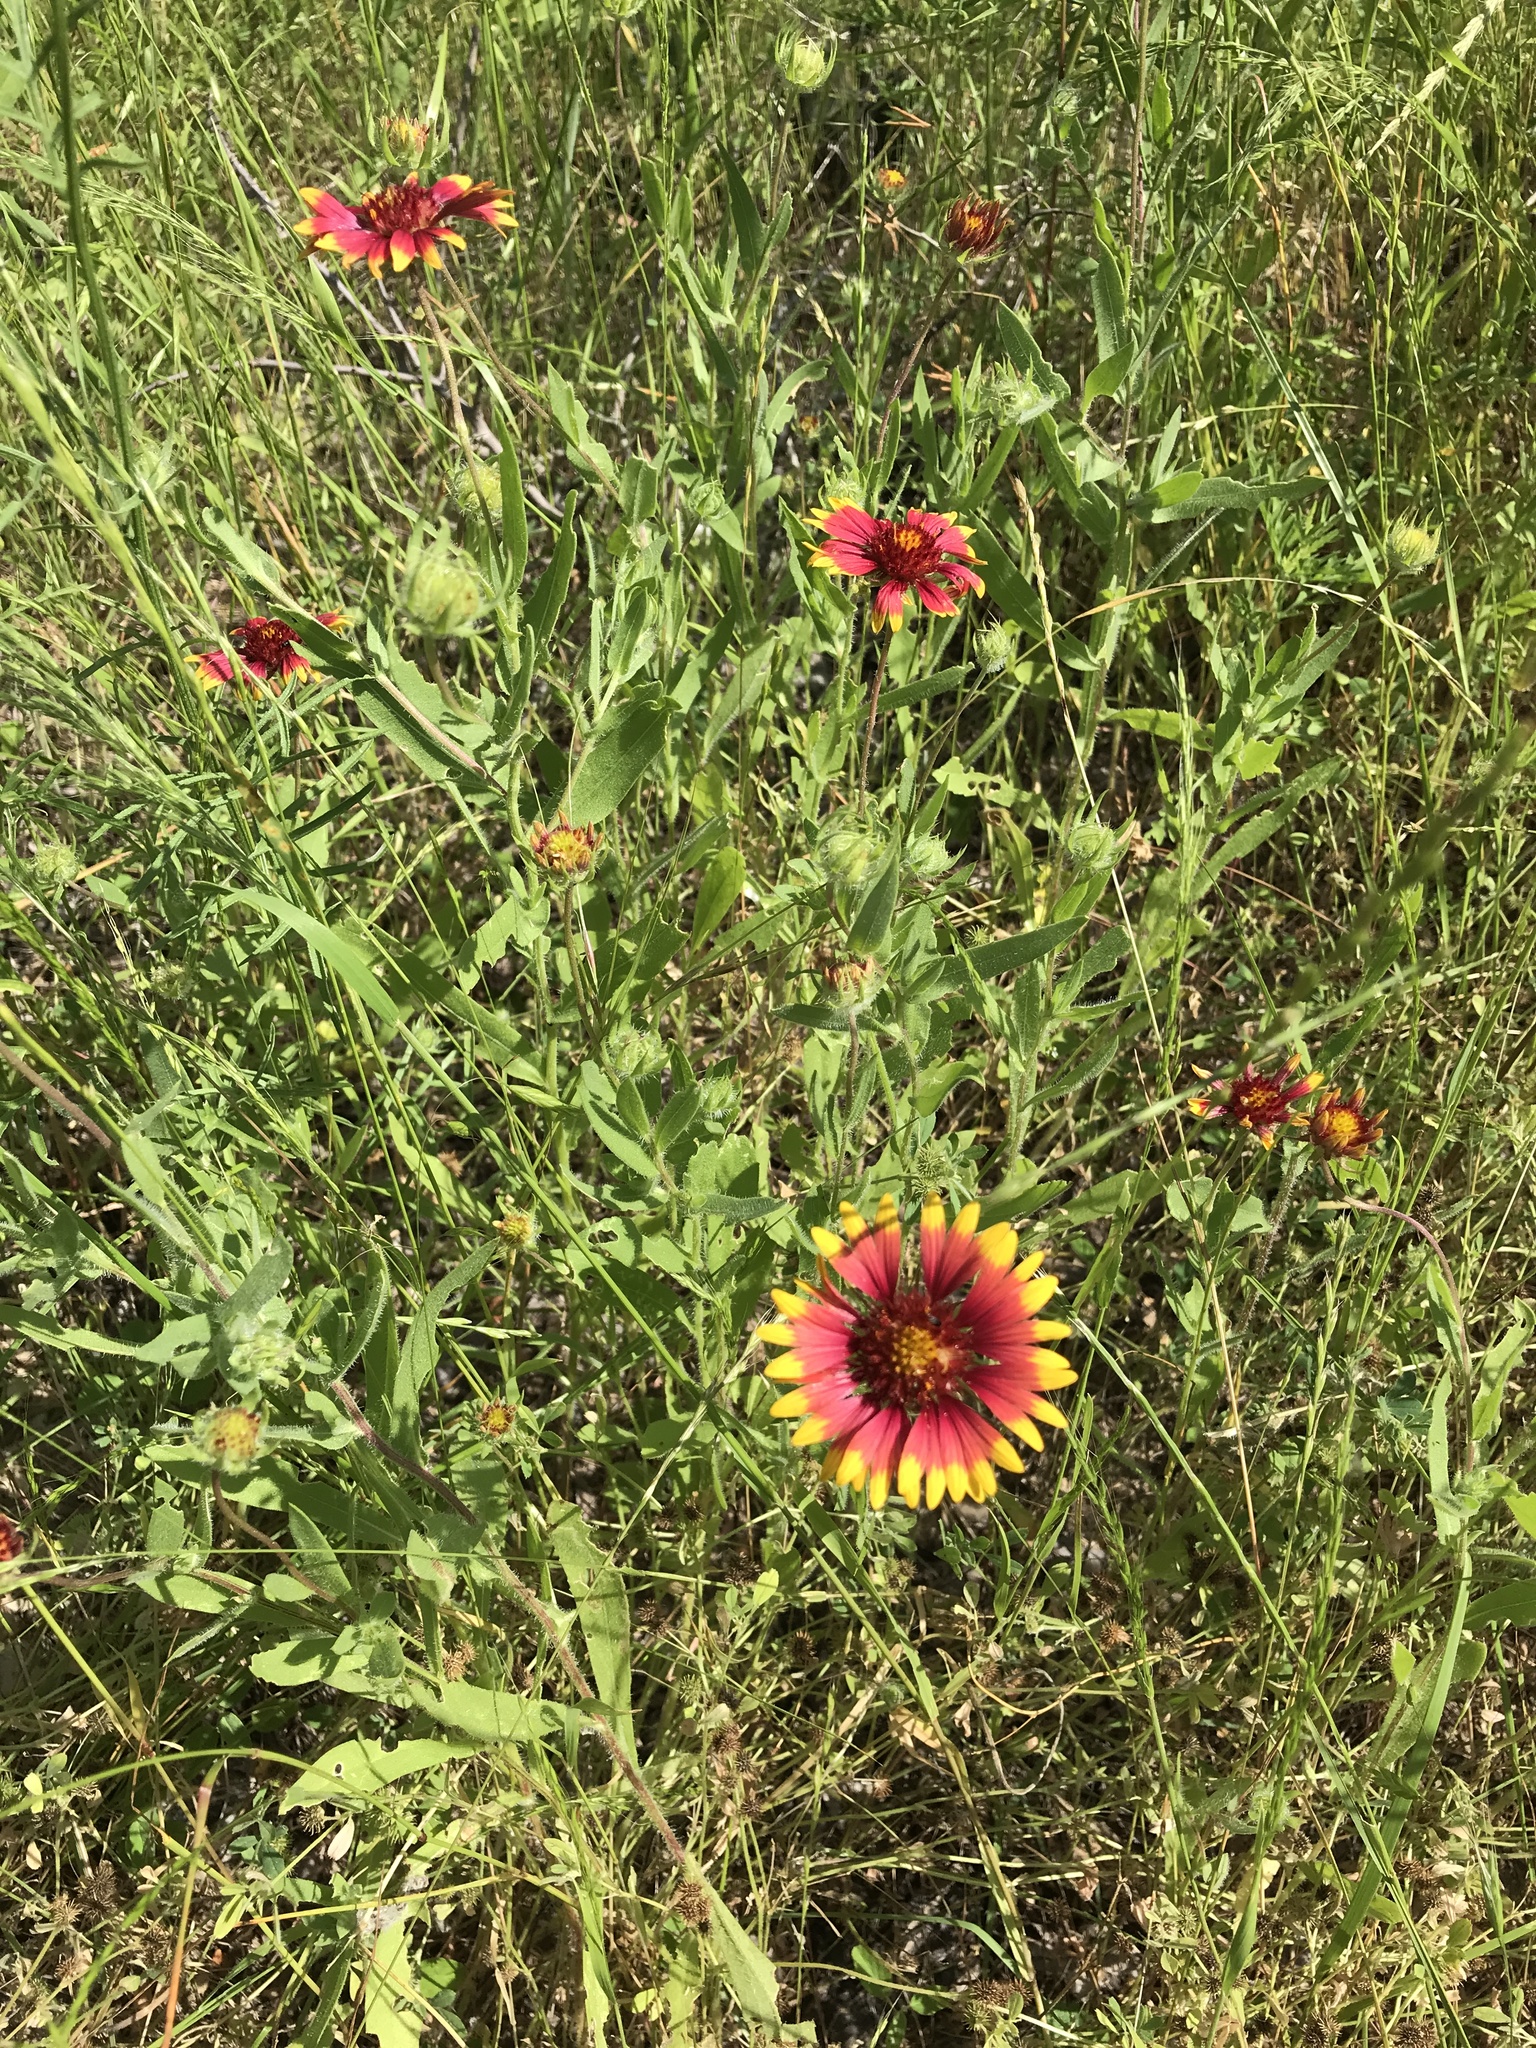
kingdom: Plantae
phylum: Tracheophyta
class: Magnoliopsida
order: Asterales
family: Asteraceae
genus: Gaillardia
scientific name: Gaillardia pulchella
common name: Firewheel
